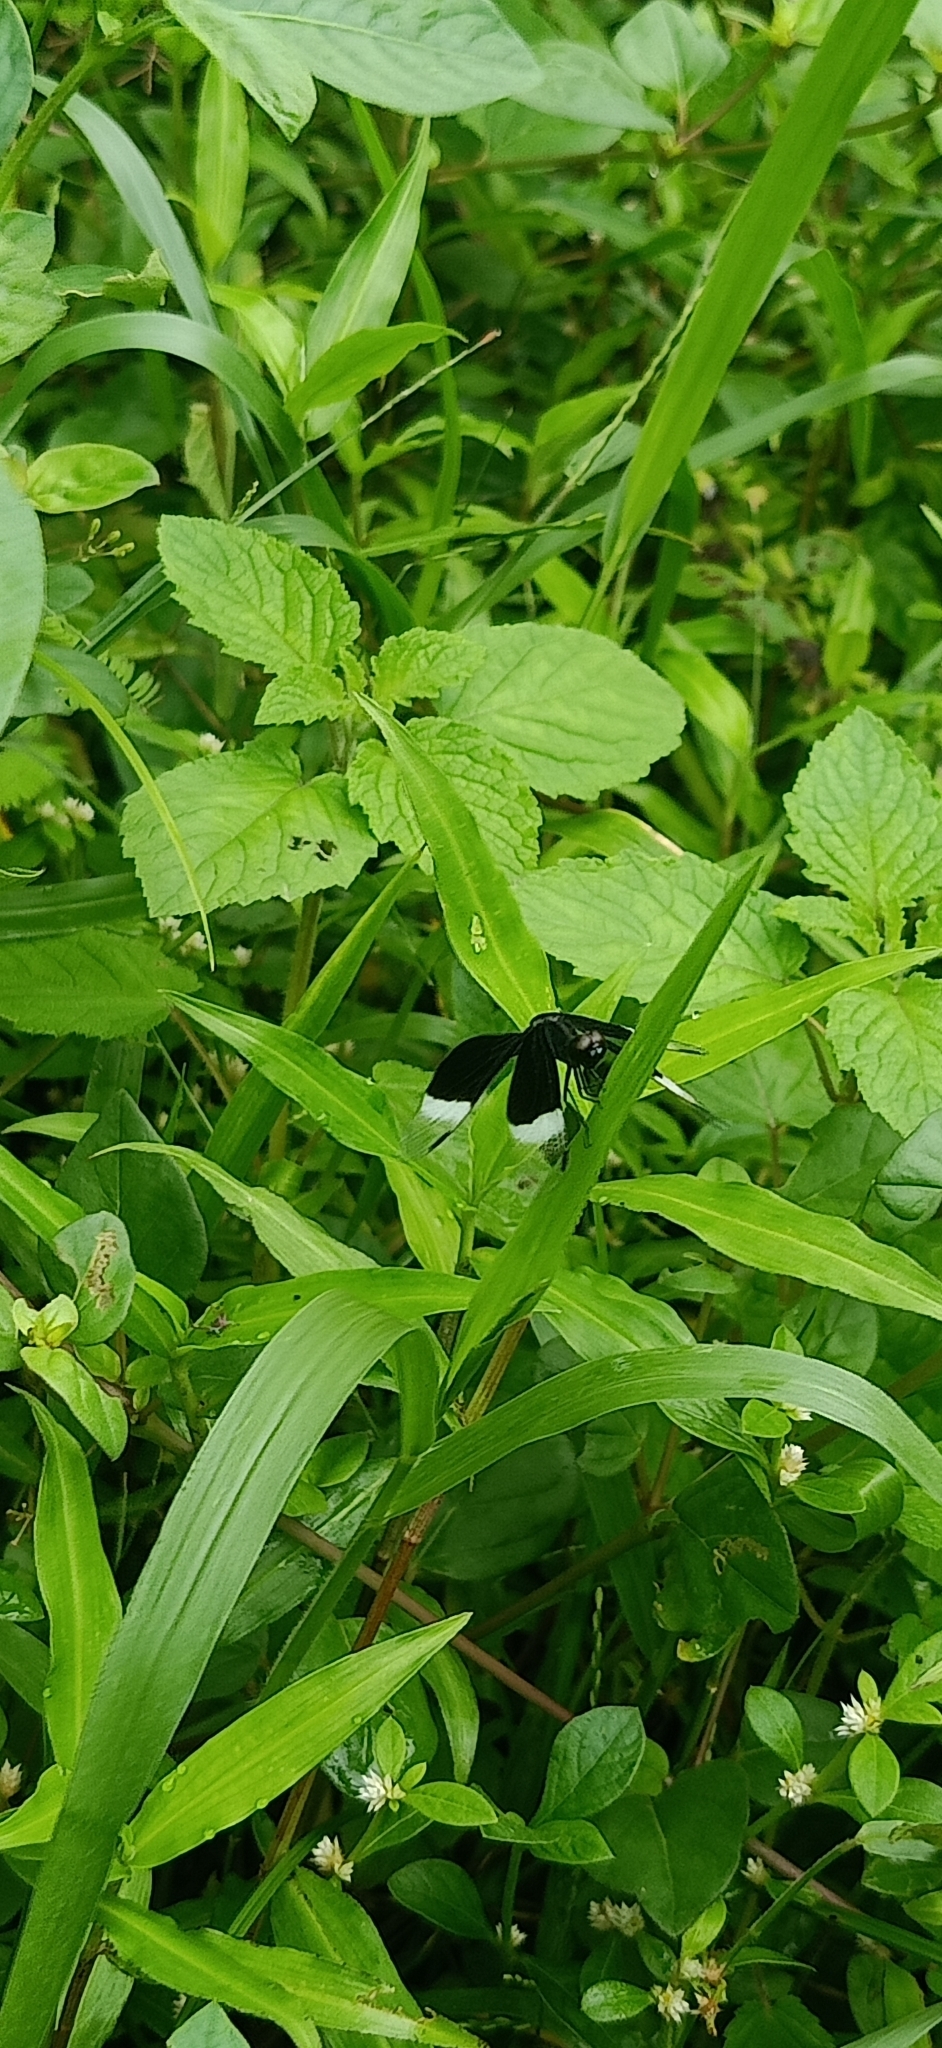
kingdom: Animalia
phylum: Arthropoda
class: Insecta
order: Odonata
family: Libellulidae
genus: Neurothemis
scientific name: Neurothemis tullia
